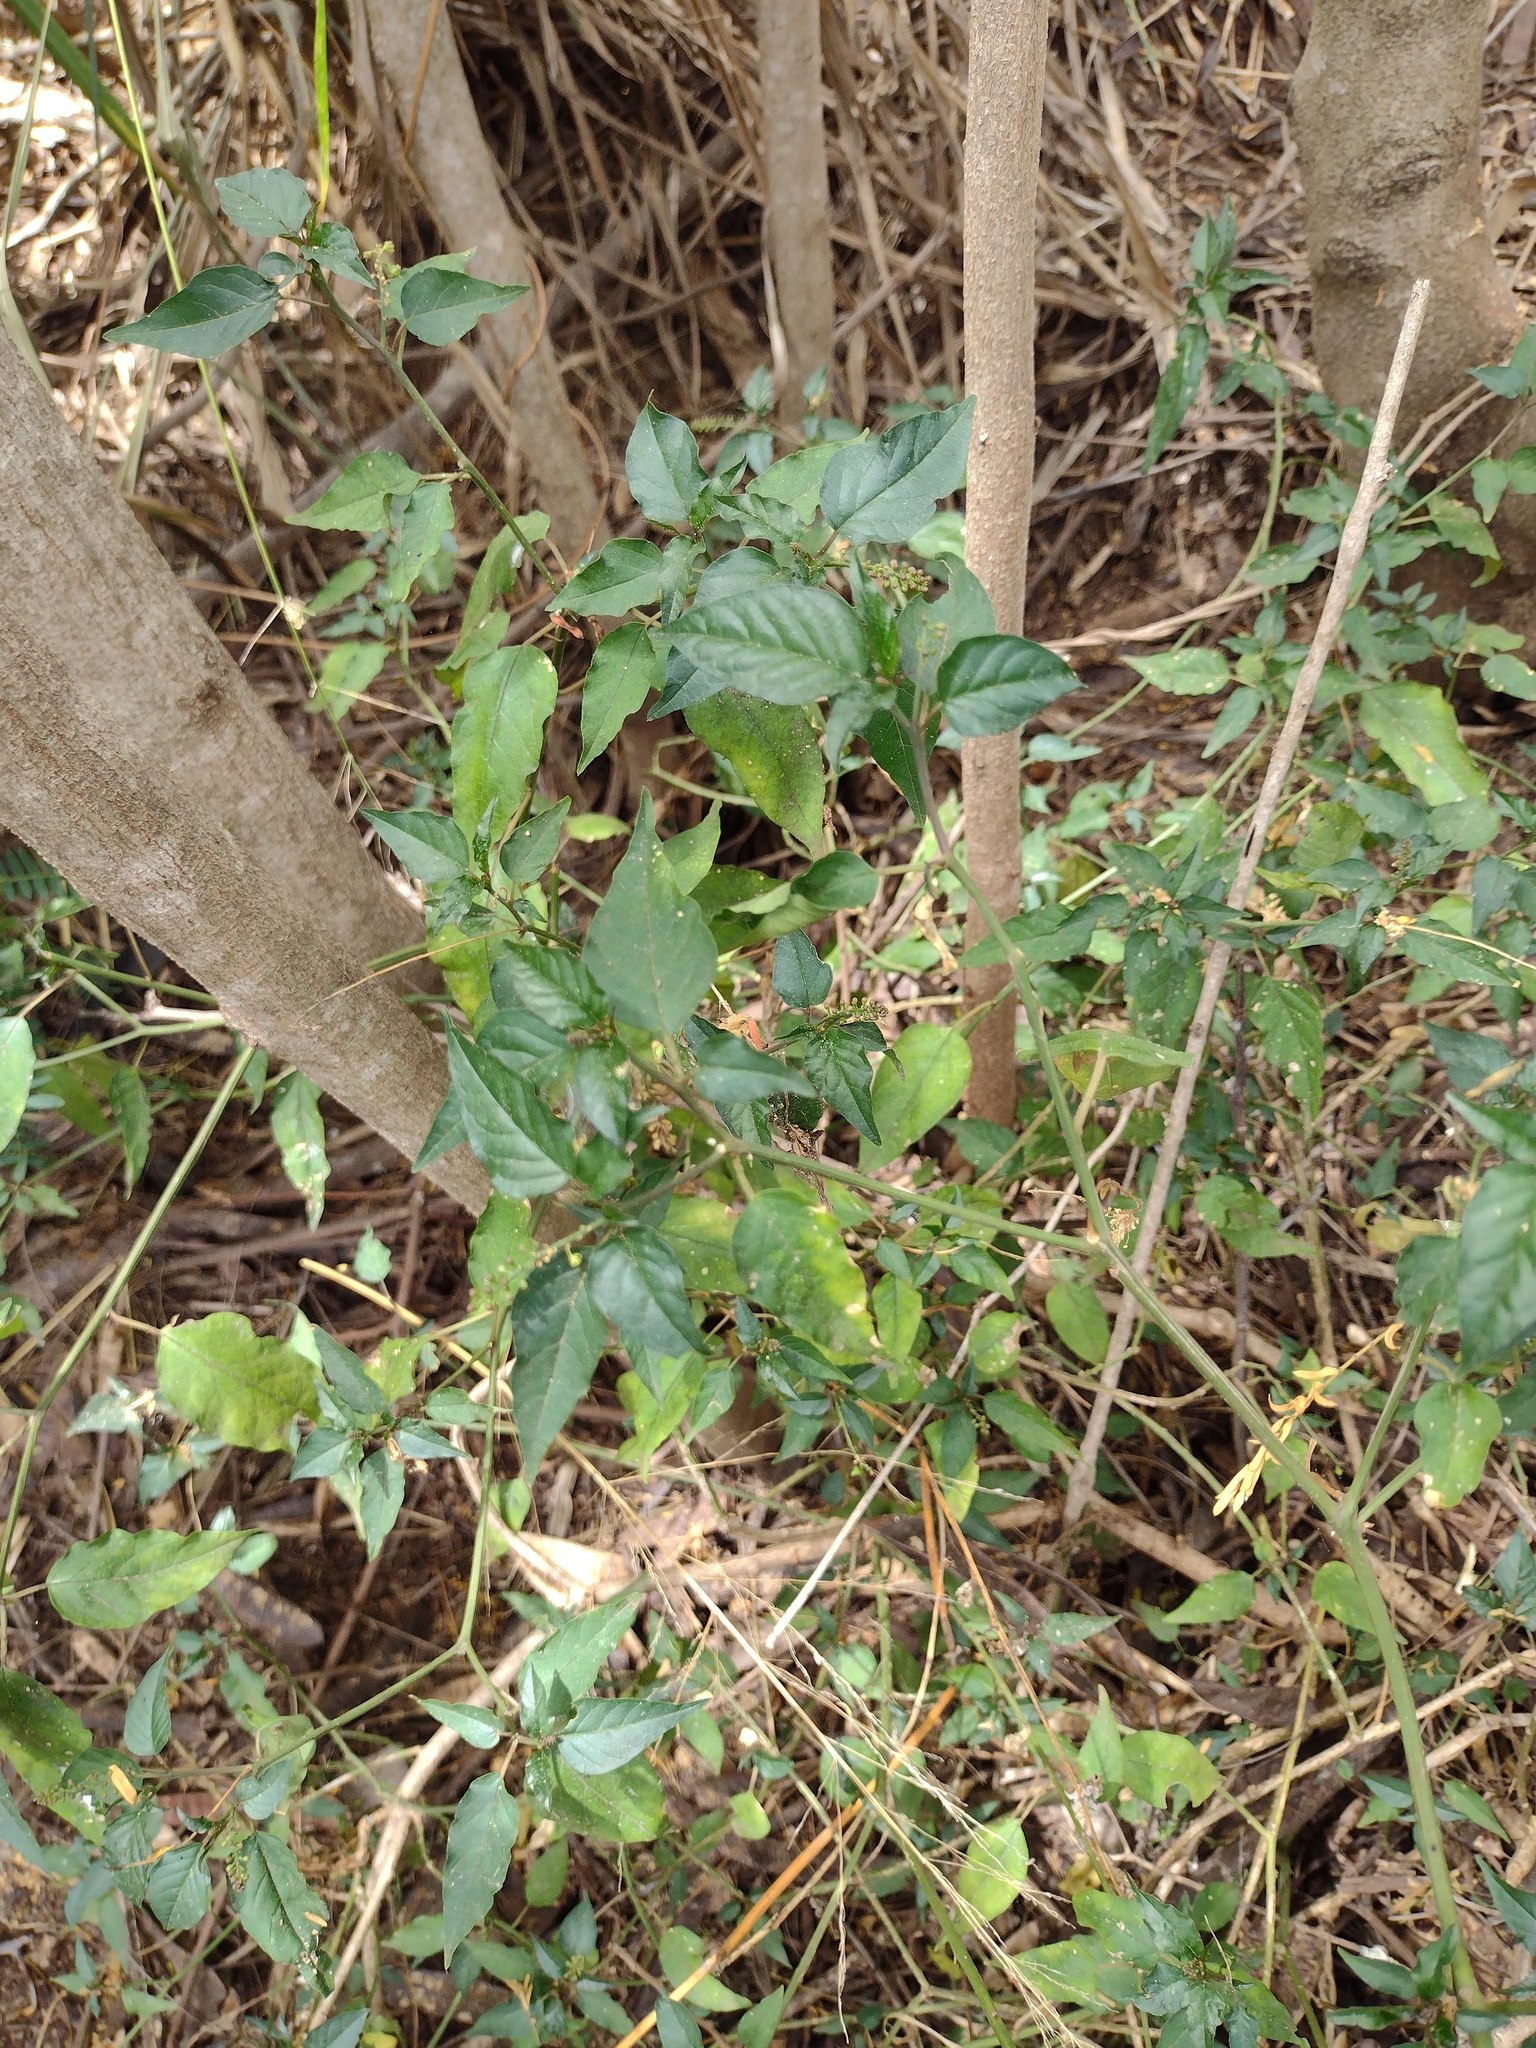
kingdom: Plantae
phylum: Tracheophyta
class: Magnoliopsida
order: Caryophyllales
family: Phytolaccaceae
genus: Rivina
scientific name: Rivina humilis
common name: Rougeplant
